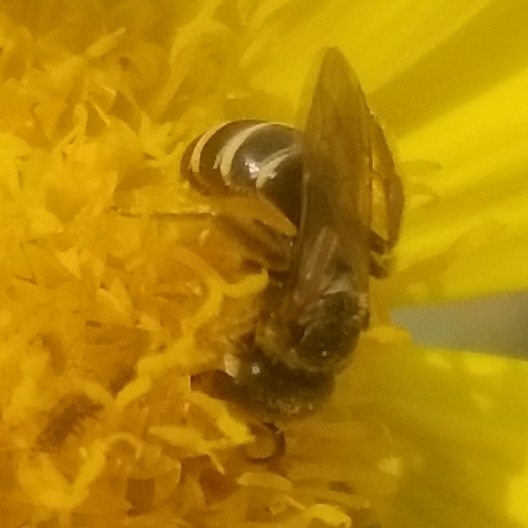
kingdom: Animalia
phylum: Arthropoda
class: Insecta
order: Hymenoptera
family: Halictidae
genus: Halictus
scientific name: Halictus ligatus
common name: Ligated furrow bee
